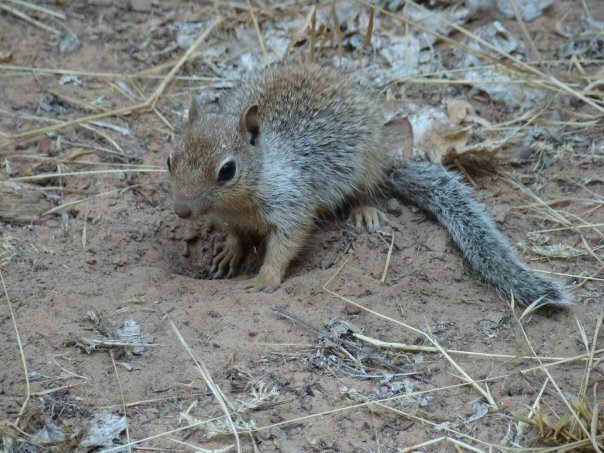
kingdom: Animalia
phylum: Chordata
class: Mammalia
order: Rodentia
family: Sciuridae
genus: Otospermophilus
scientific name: Otospermophilus variegatus
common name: Rock squirrel
